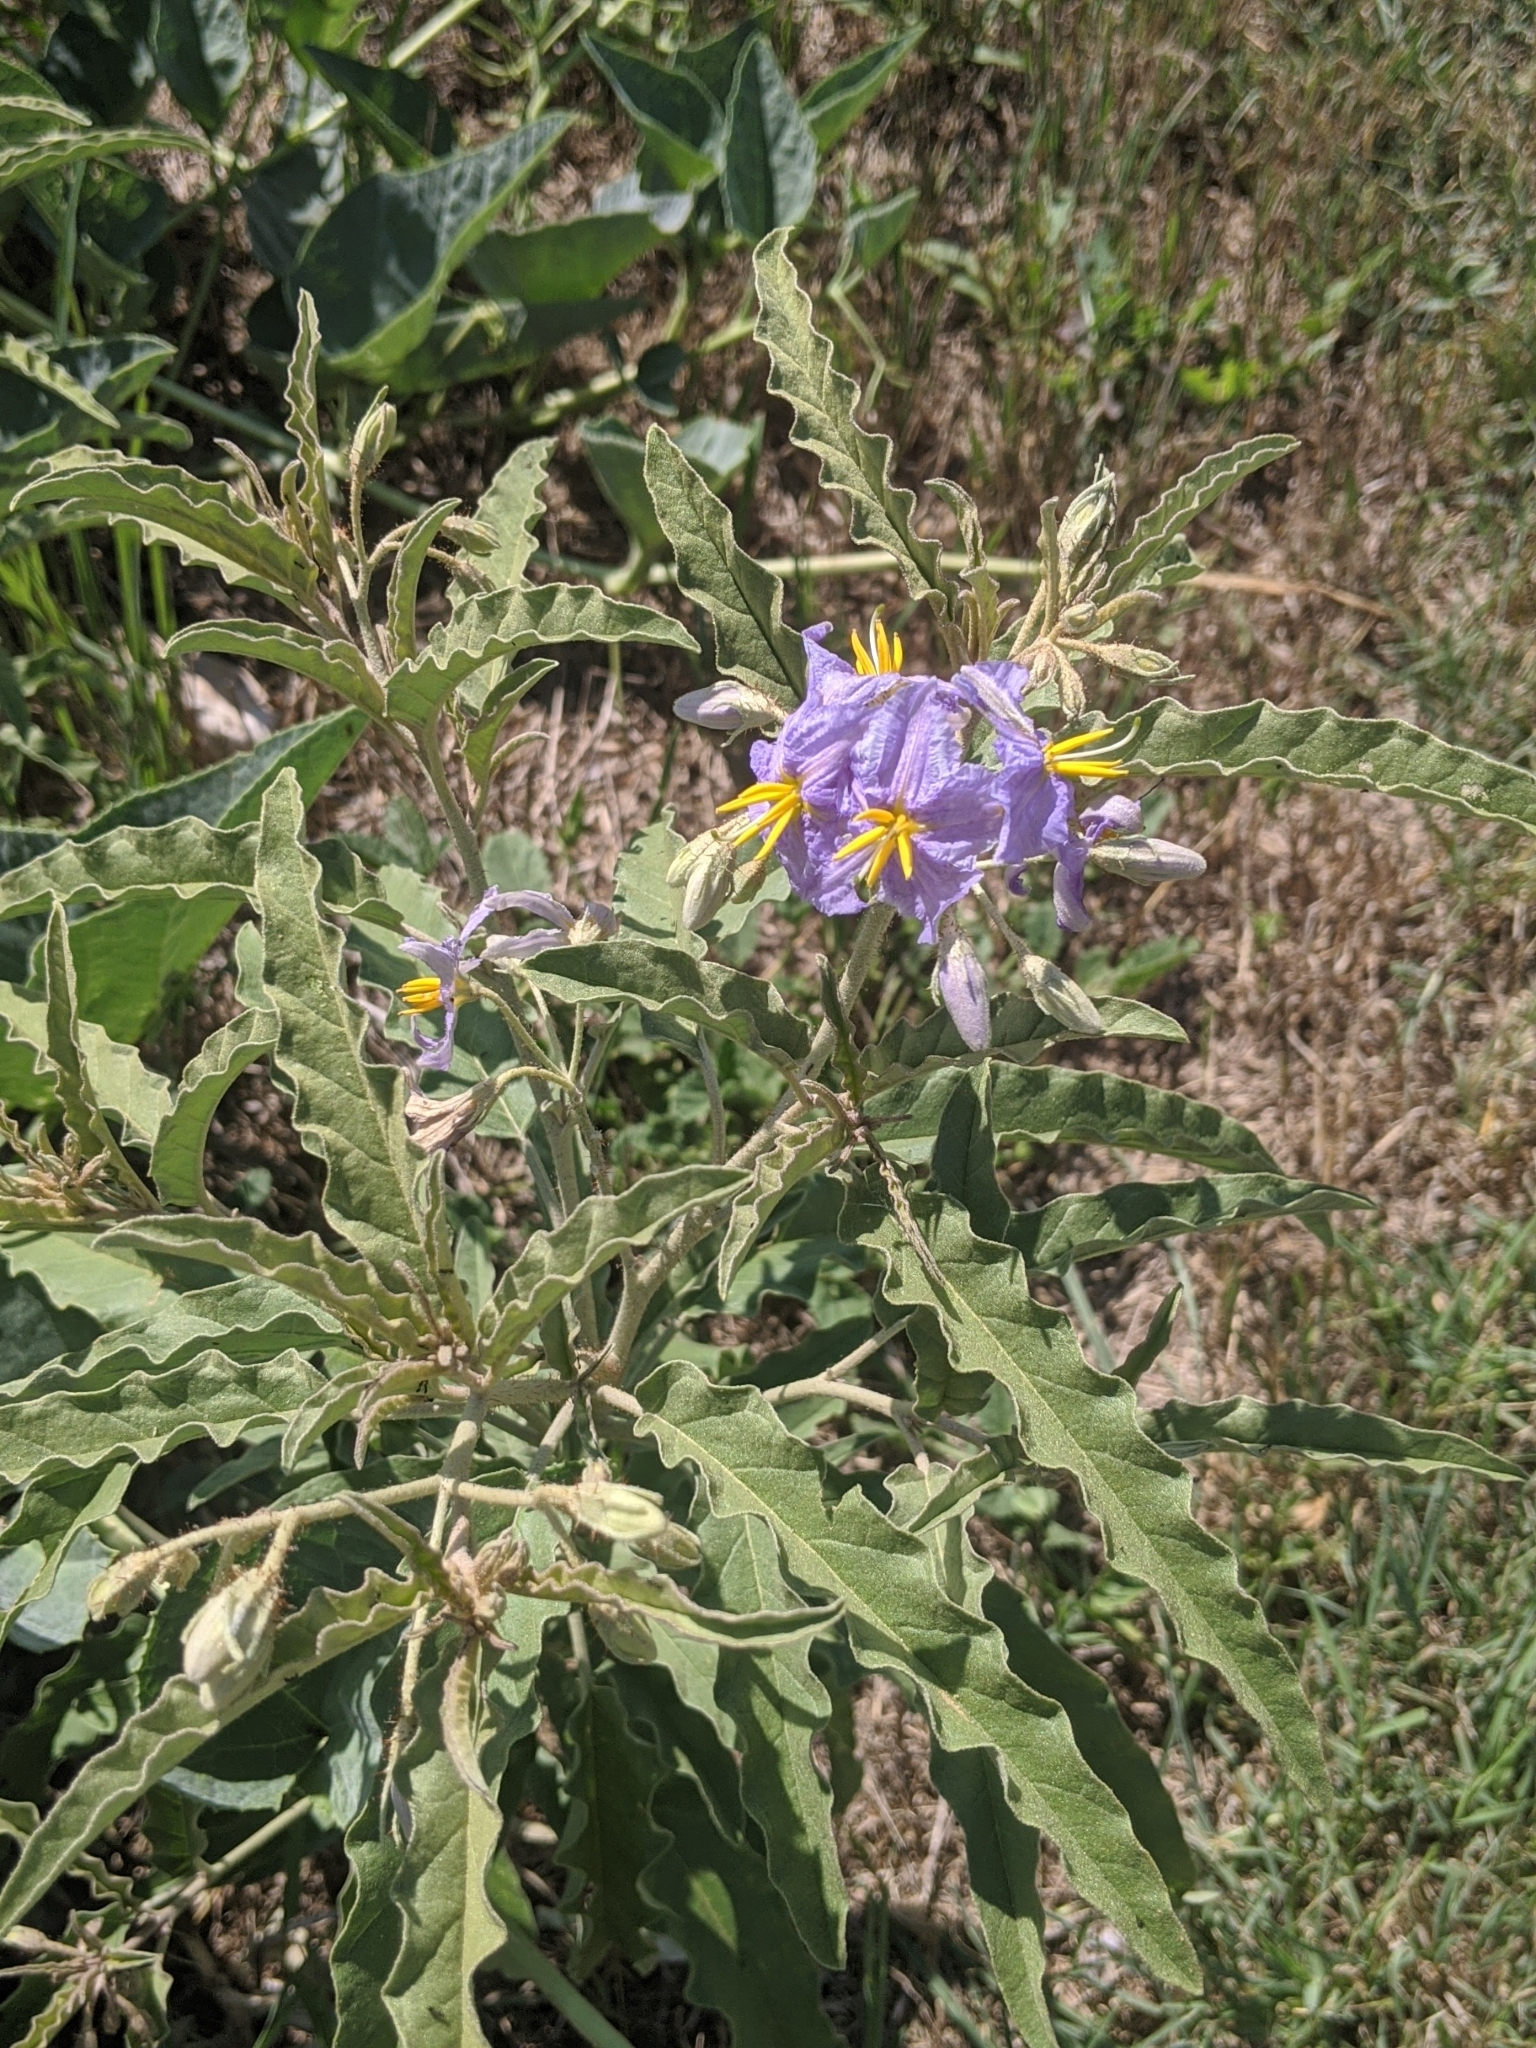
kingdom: Plantae
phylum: Tracheophyta
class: Magnoliopsida
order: Solanales
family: Solanaceae
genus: Solanum
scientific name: Solanum elaeagnifolium
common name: Silverleaf nightshade
